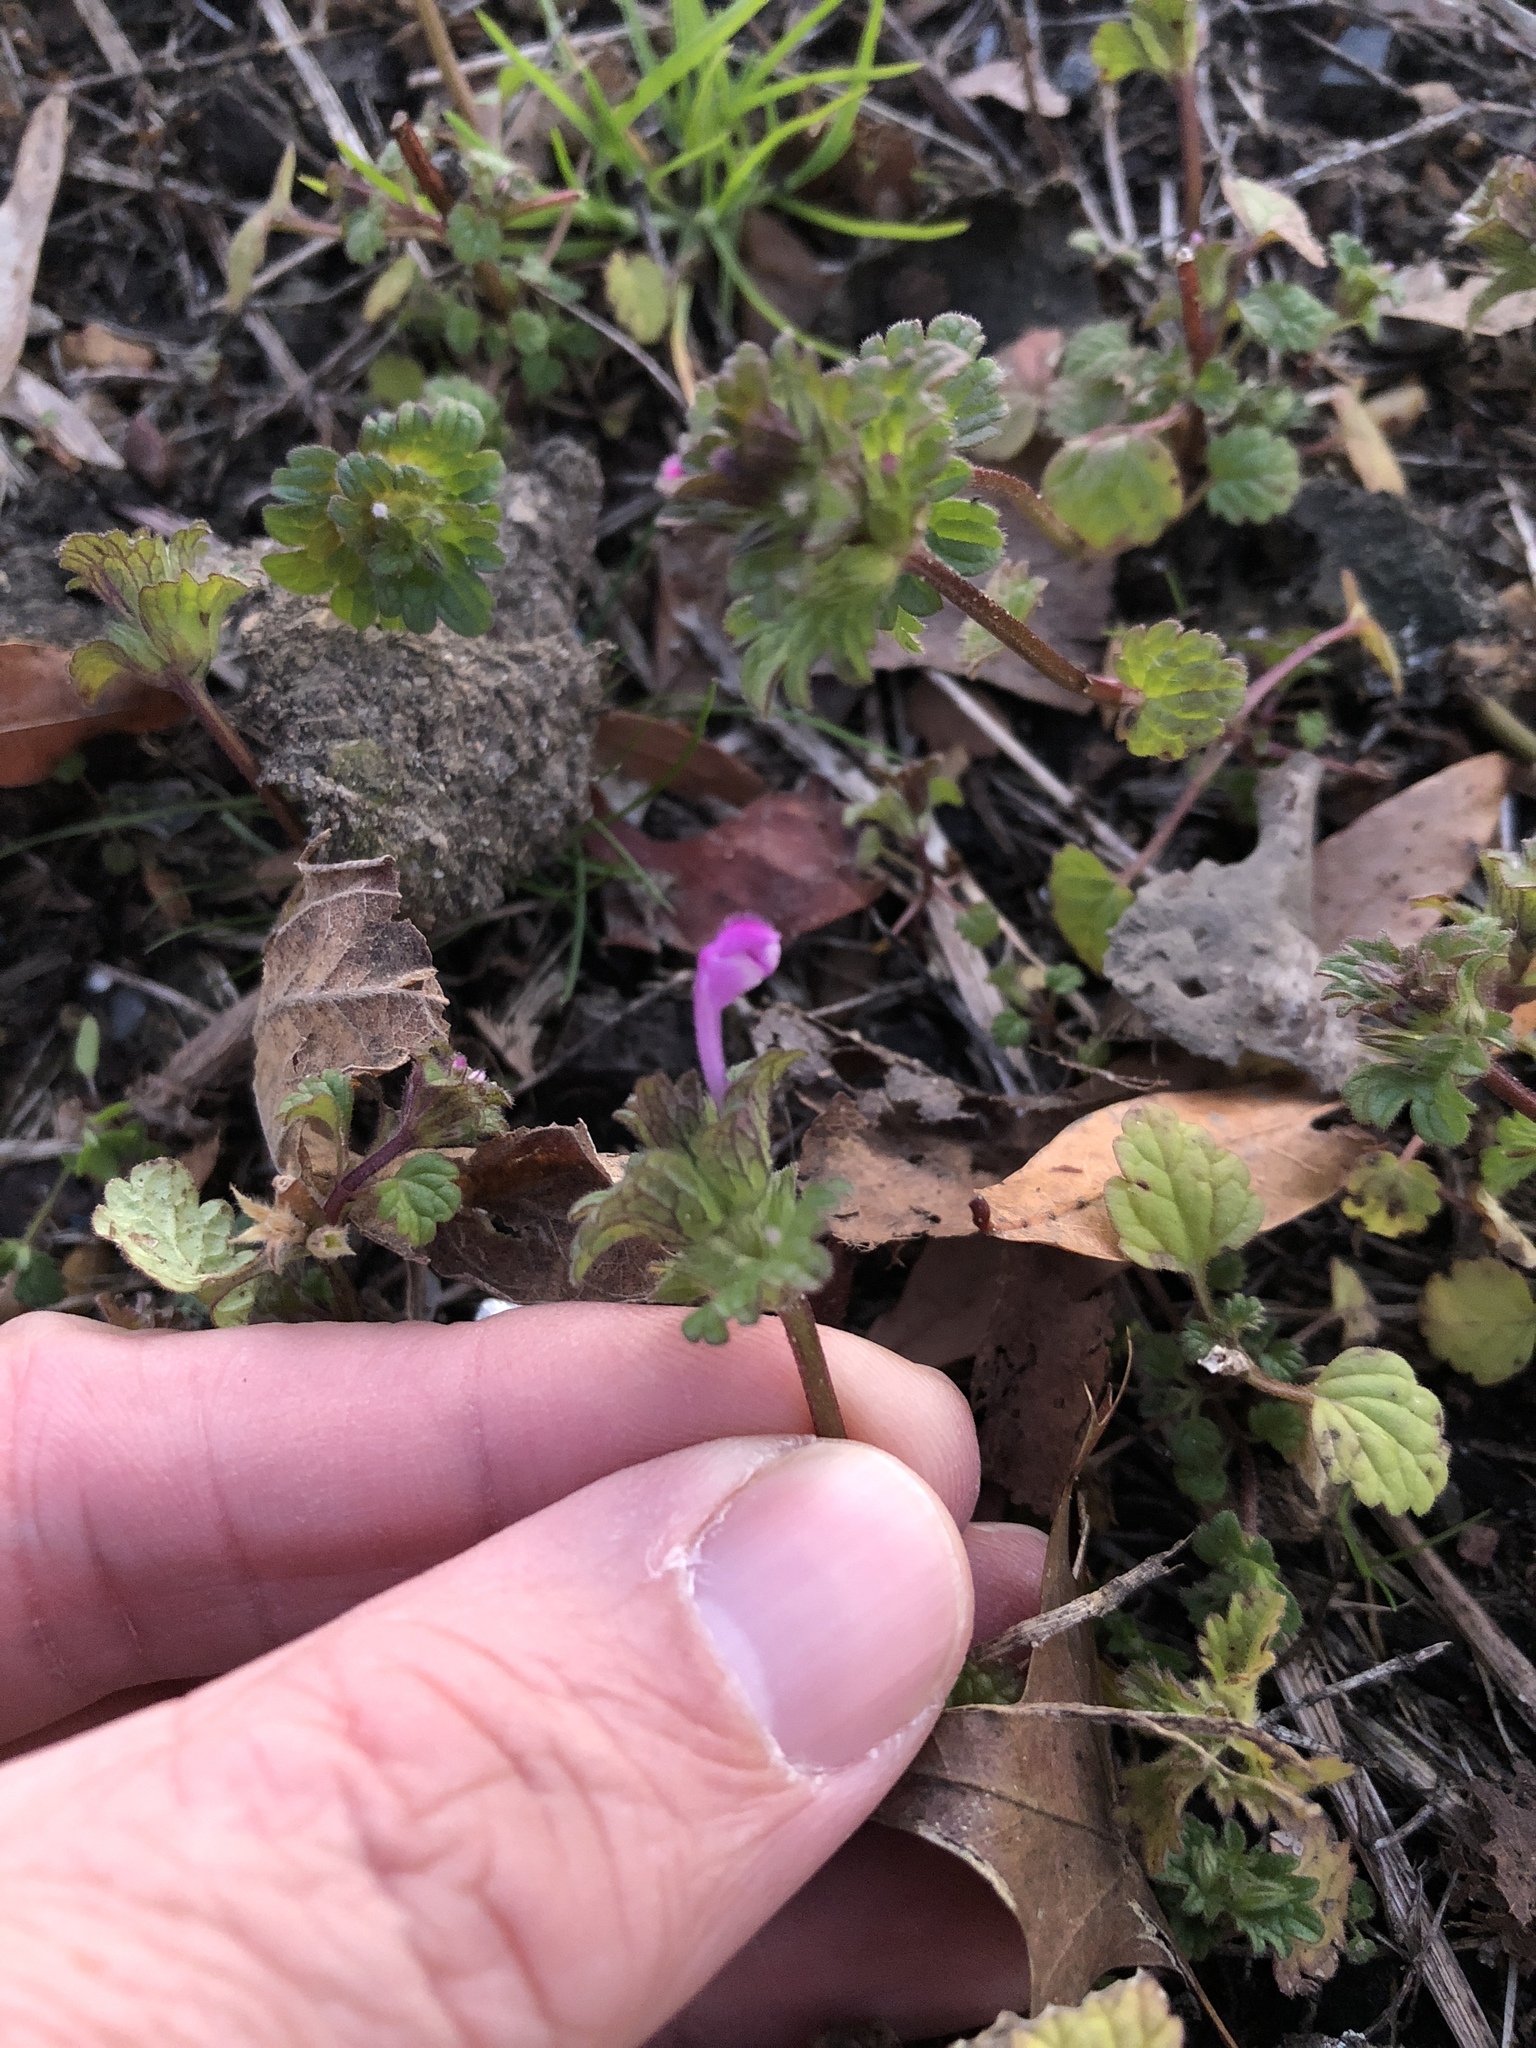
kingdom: Plantae
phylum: Tracheophyta
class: Magnoliopsida
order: Lamiales
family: Lamiaceae
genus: Lamium
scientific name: Lamium amplexicaule
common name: Henbit dead-nettle
